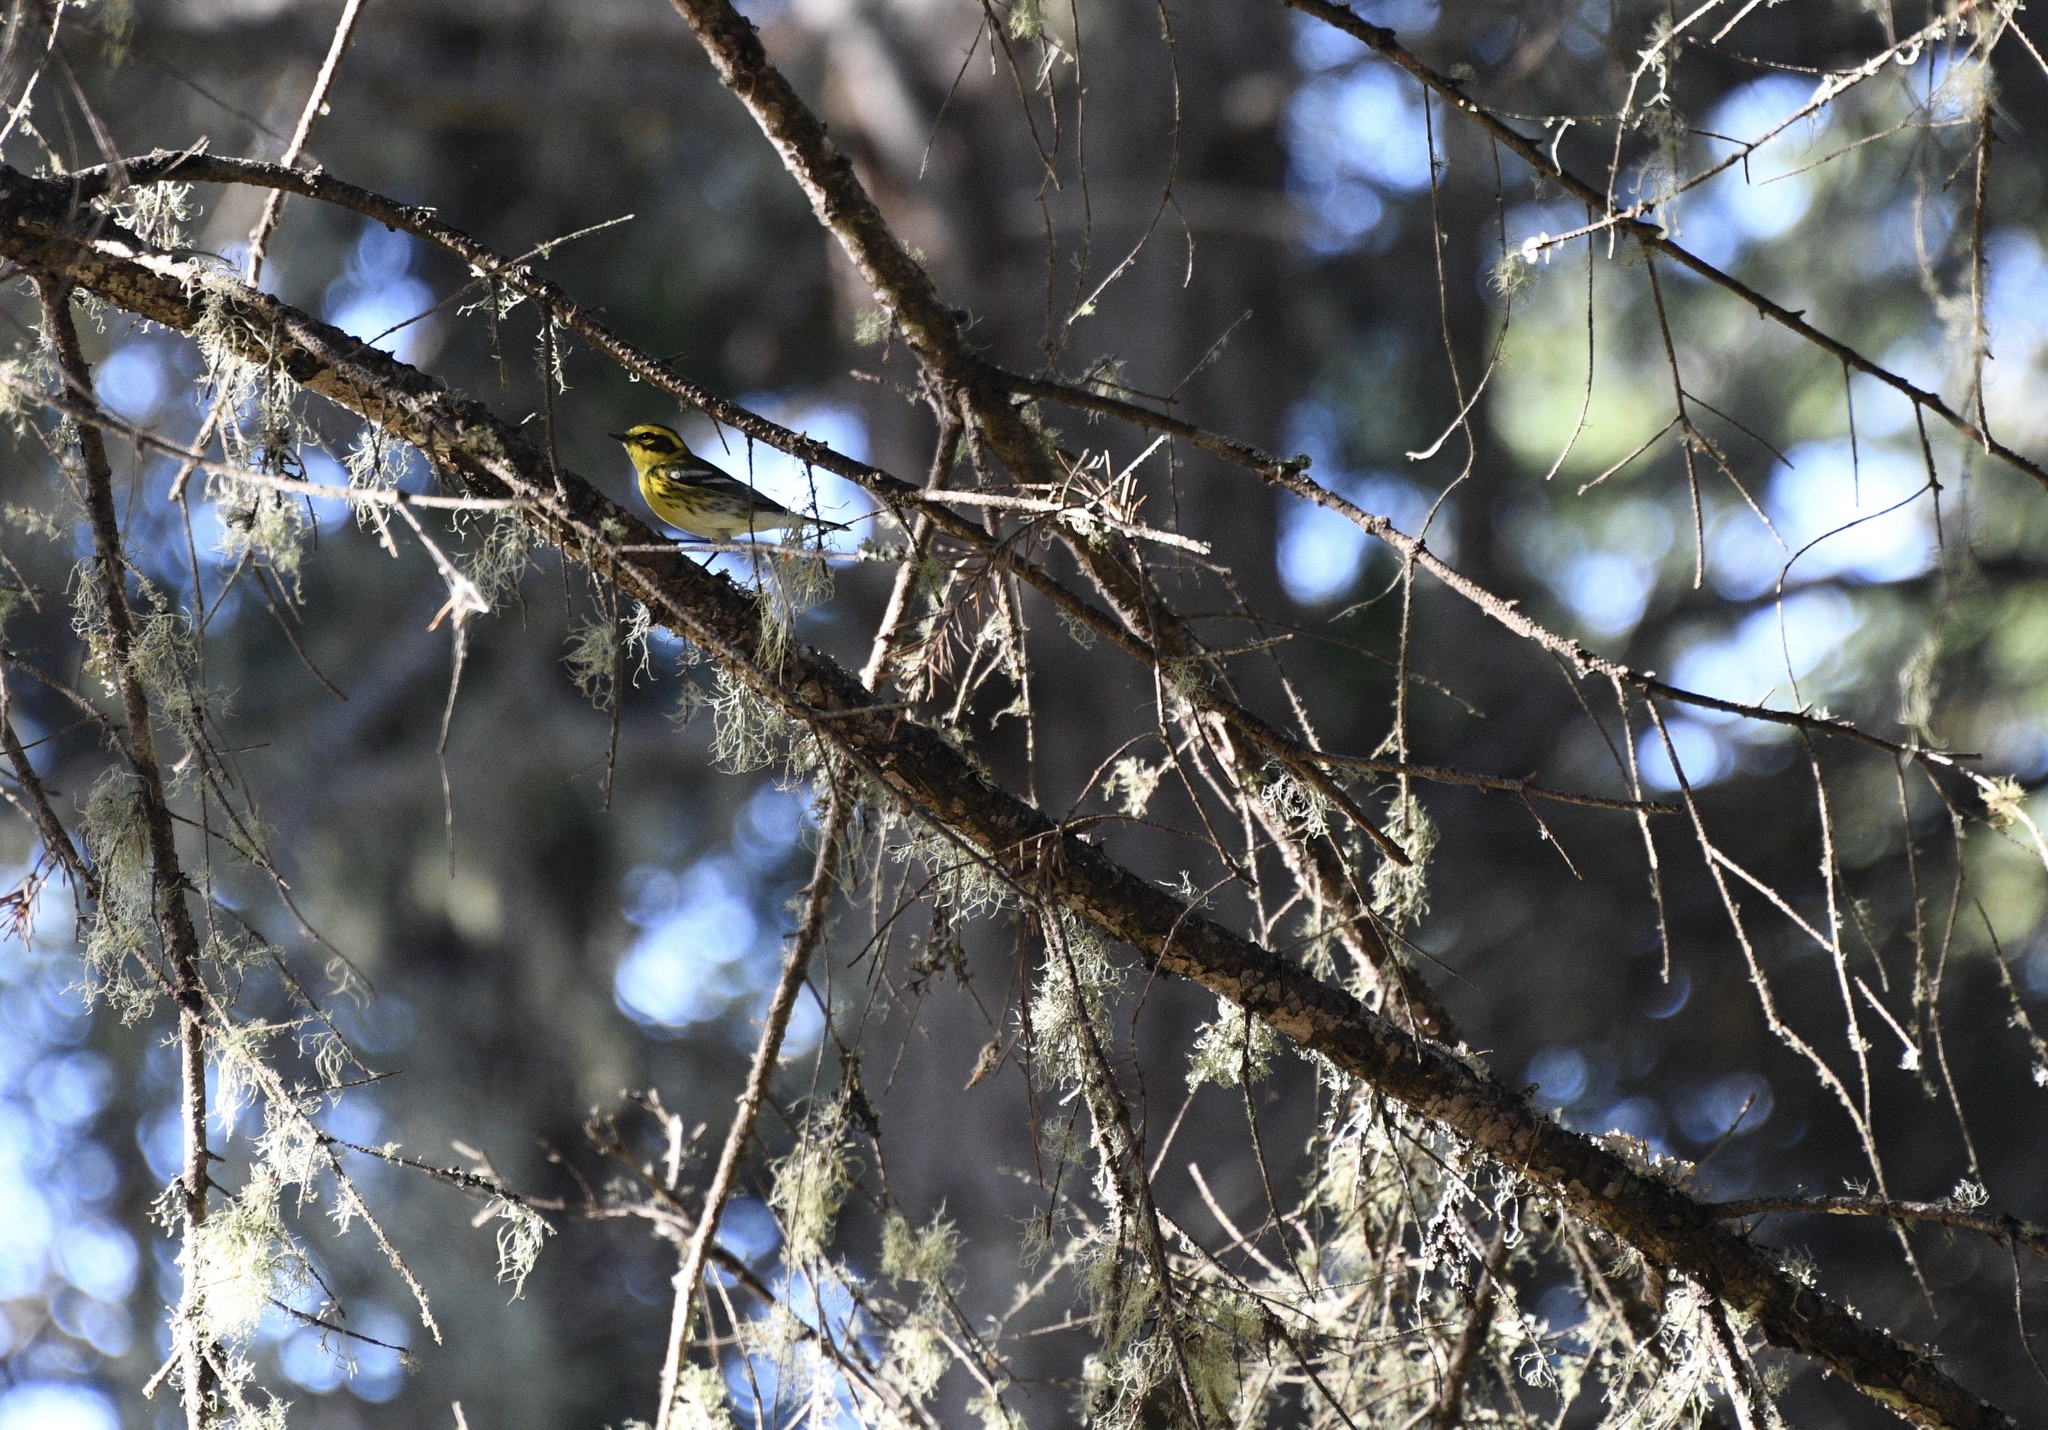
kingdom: Animalia
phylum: Chordata
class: Aves
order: Passeriformes
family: Parulidae
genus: Setophaga
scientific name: Setophaga townsendi
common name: Townsend's warbler
